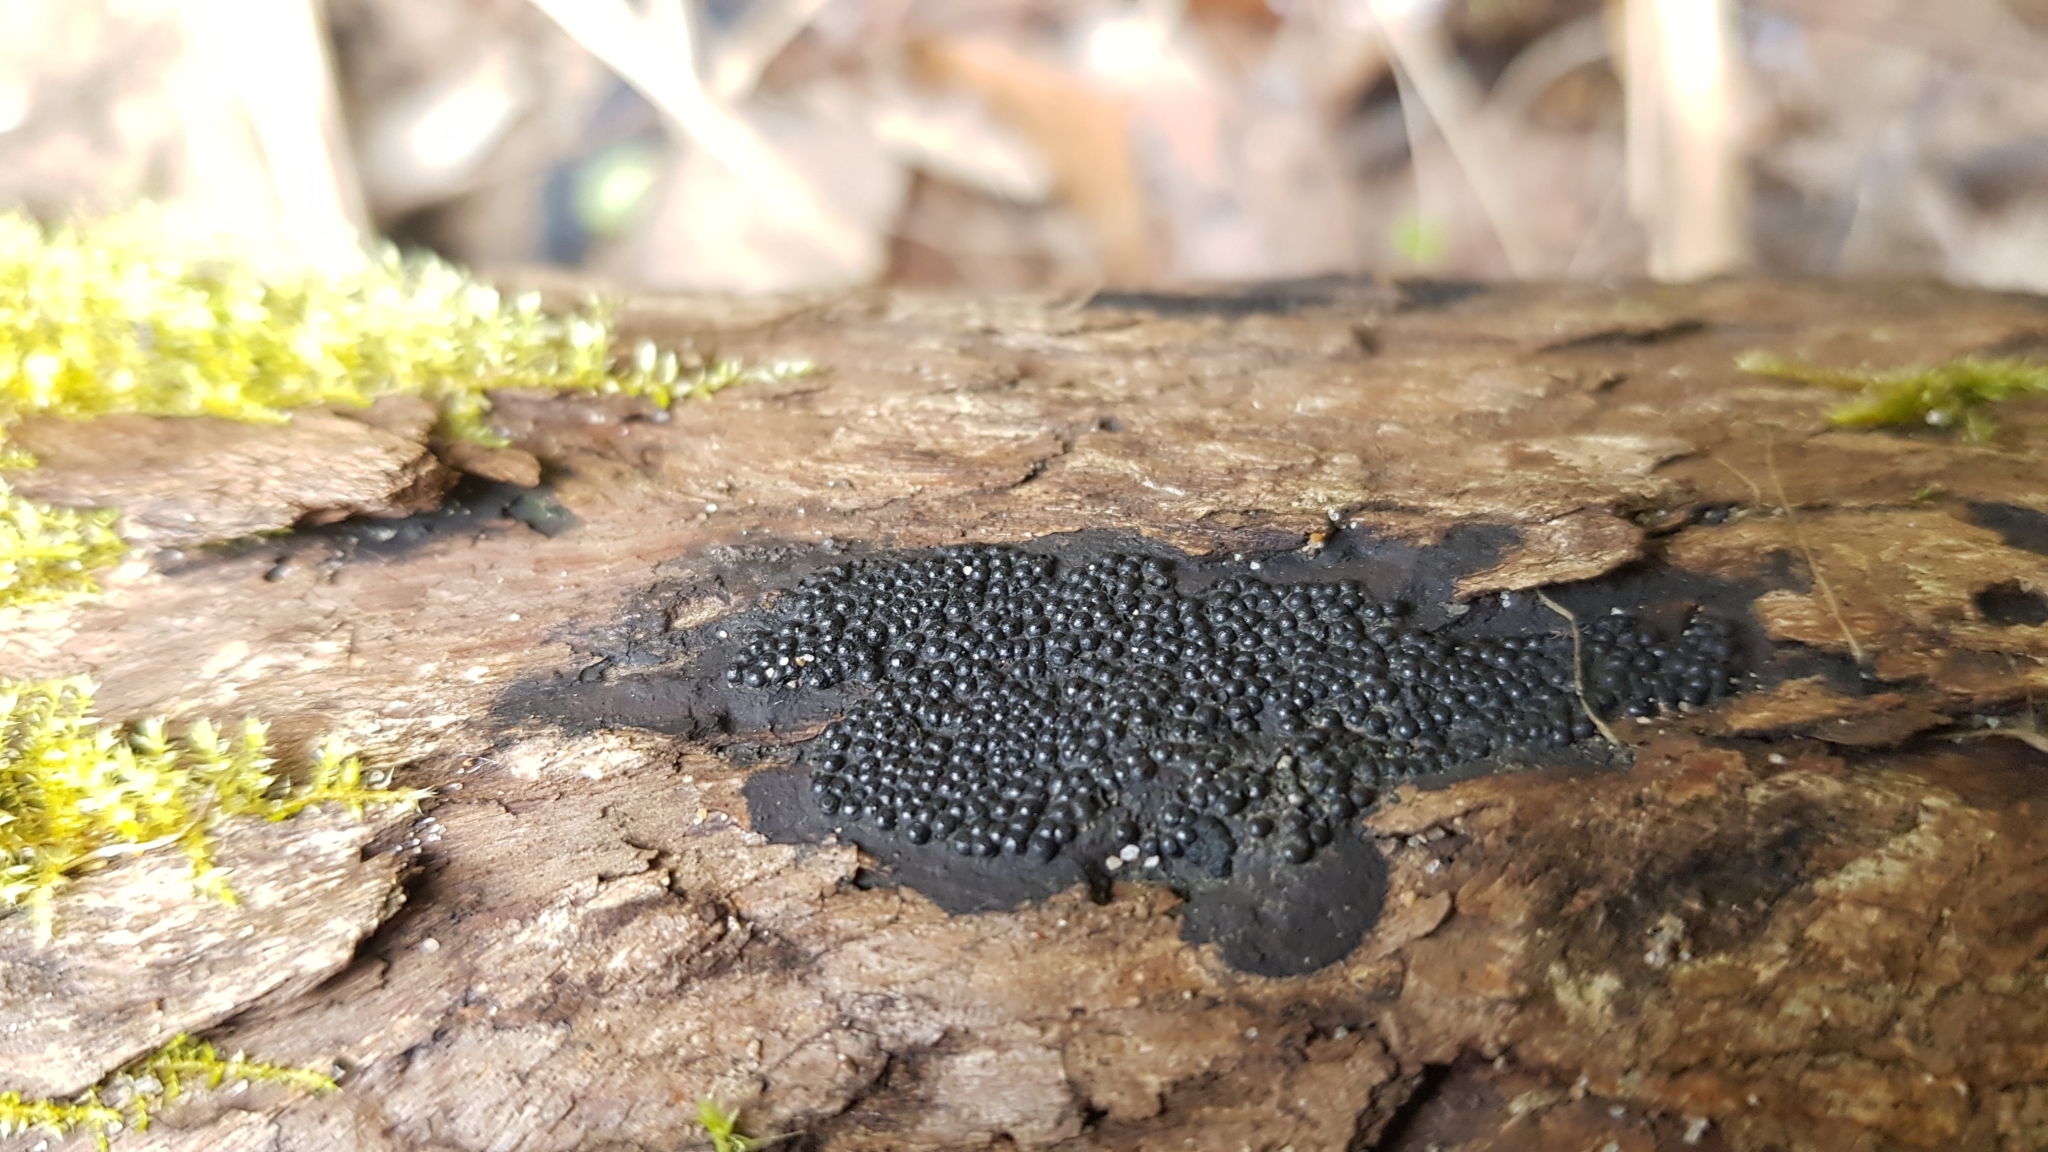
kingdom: Fungi
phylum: Ascomycota
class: Sordariomycetes
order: Xylariales
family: Hypoxylaceae
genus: Annulohypoxylon
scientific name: Annulohypoxylon bovei
